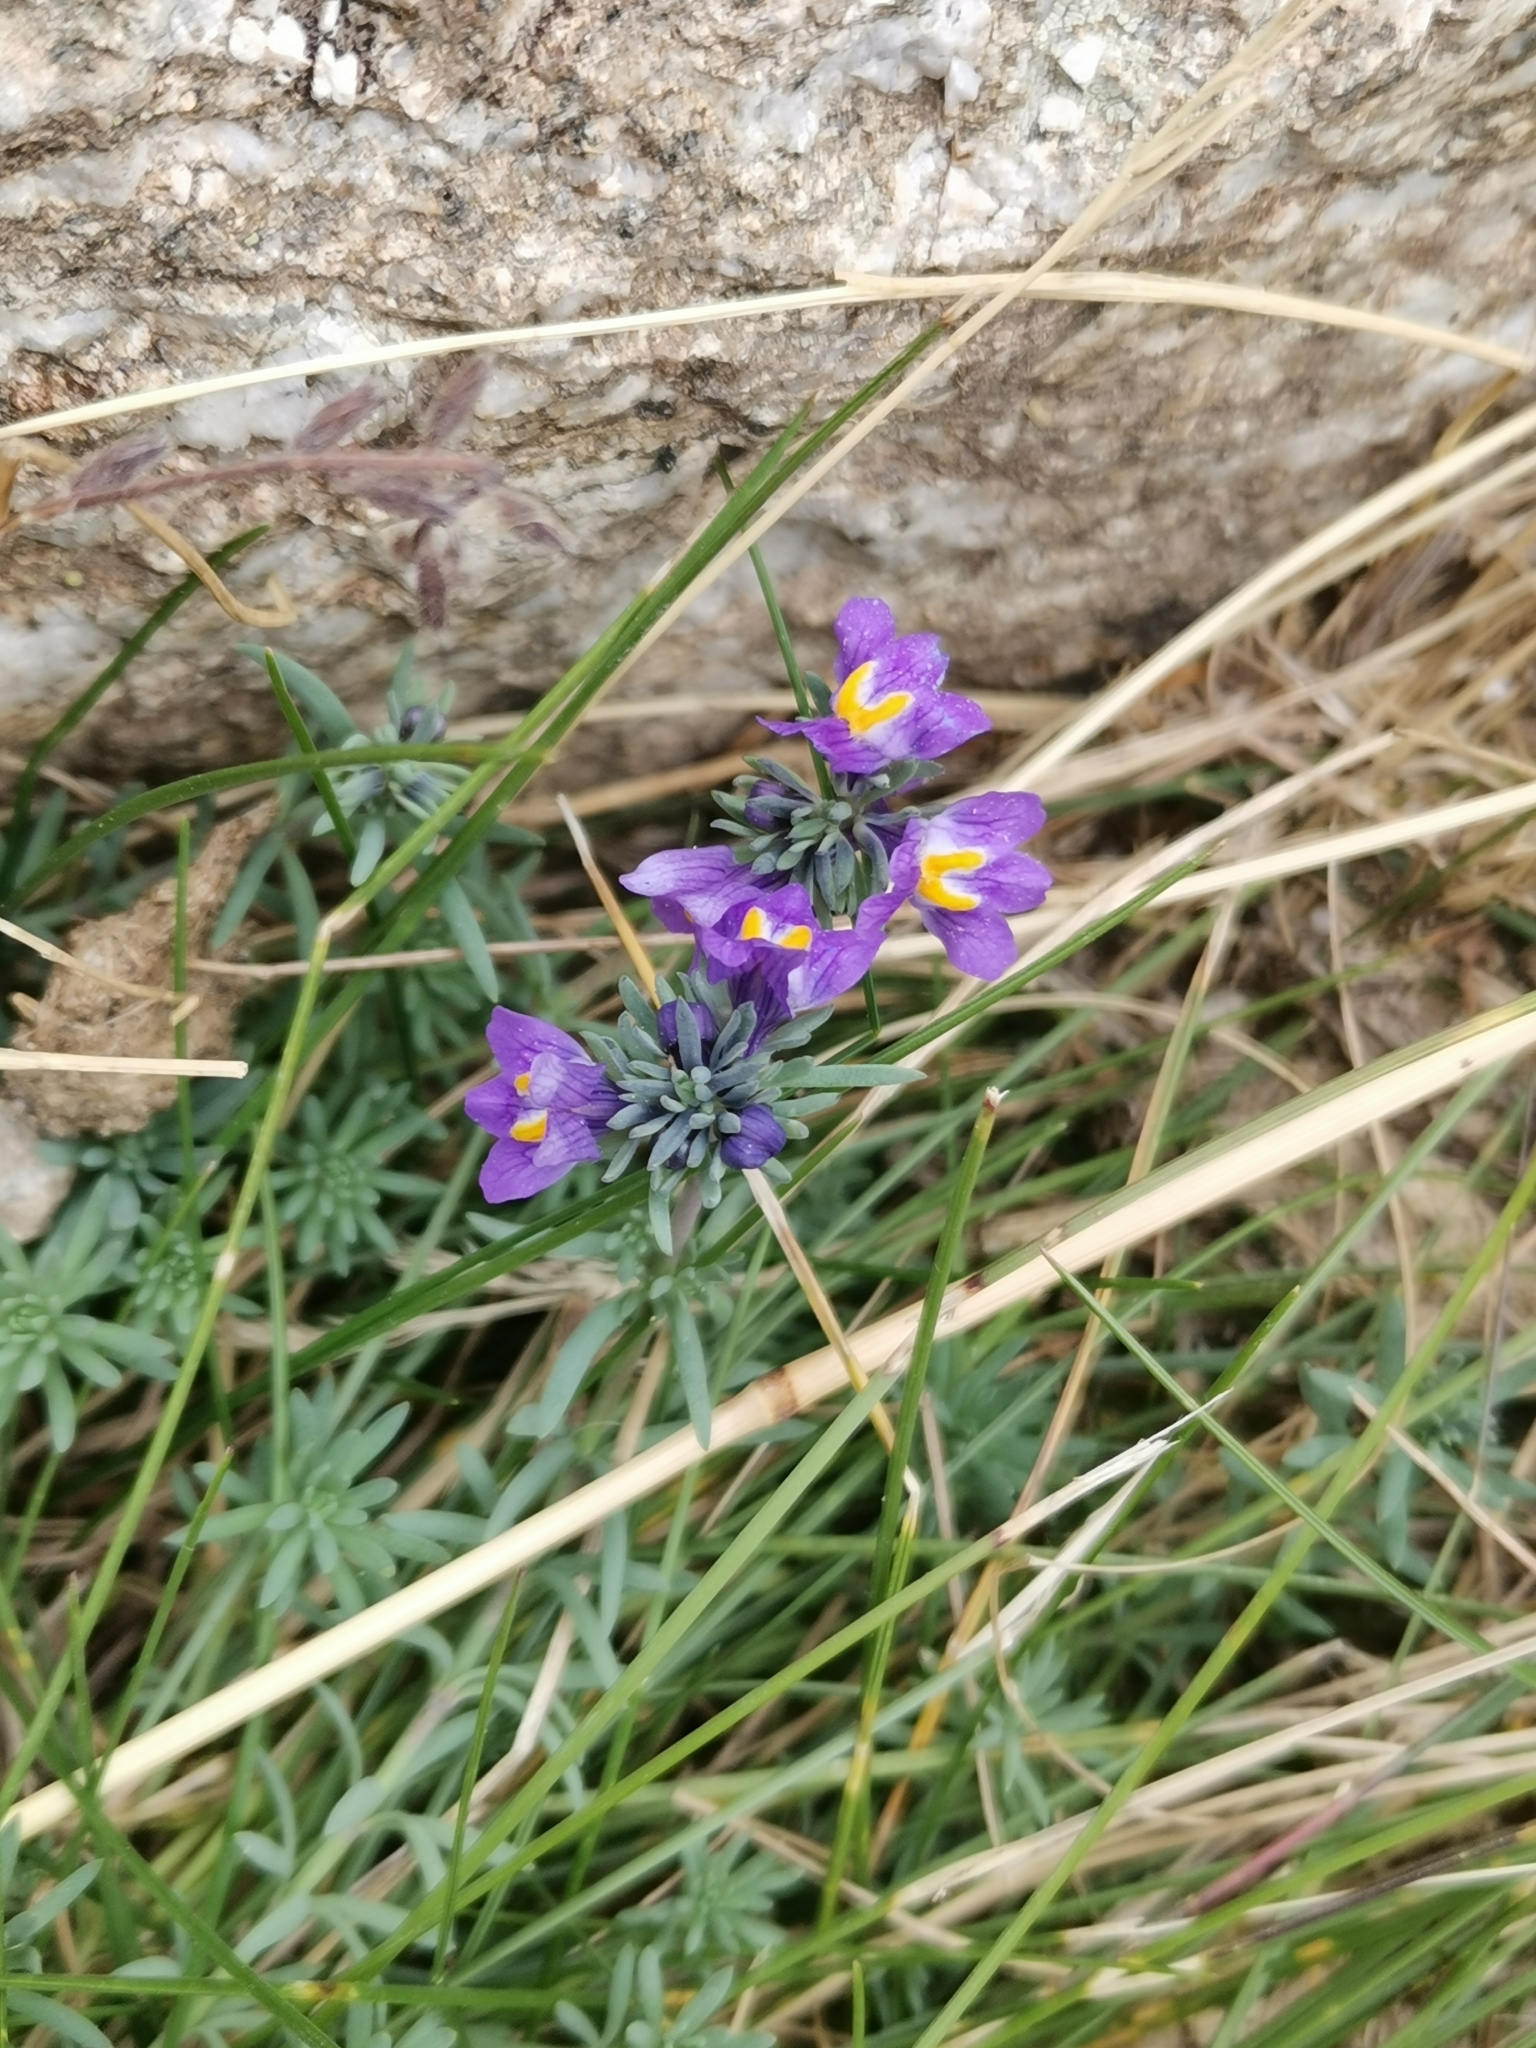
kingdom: Plantae
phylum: Tracheophyta
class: Magnoliopsida
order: Lamiales
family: Plantaginaceae
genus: Linaria
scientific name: Linaria alpina
